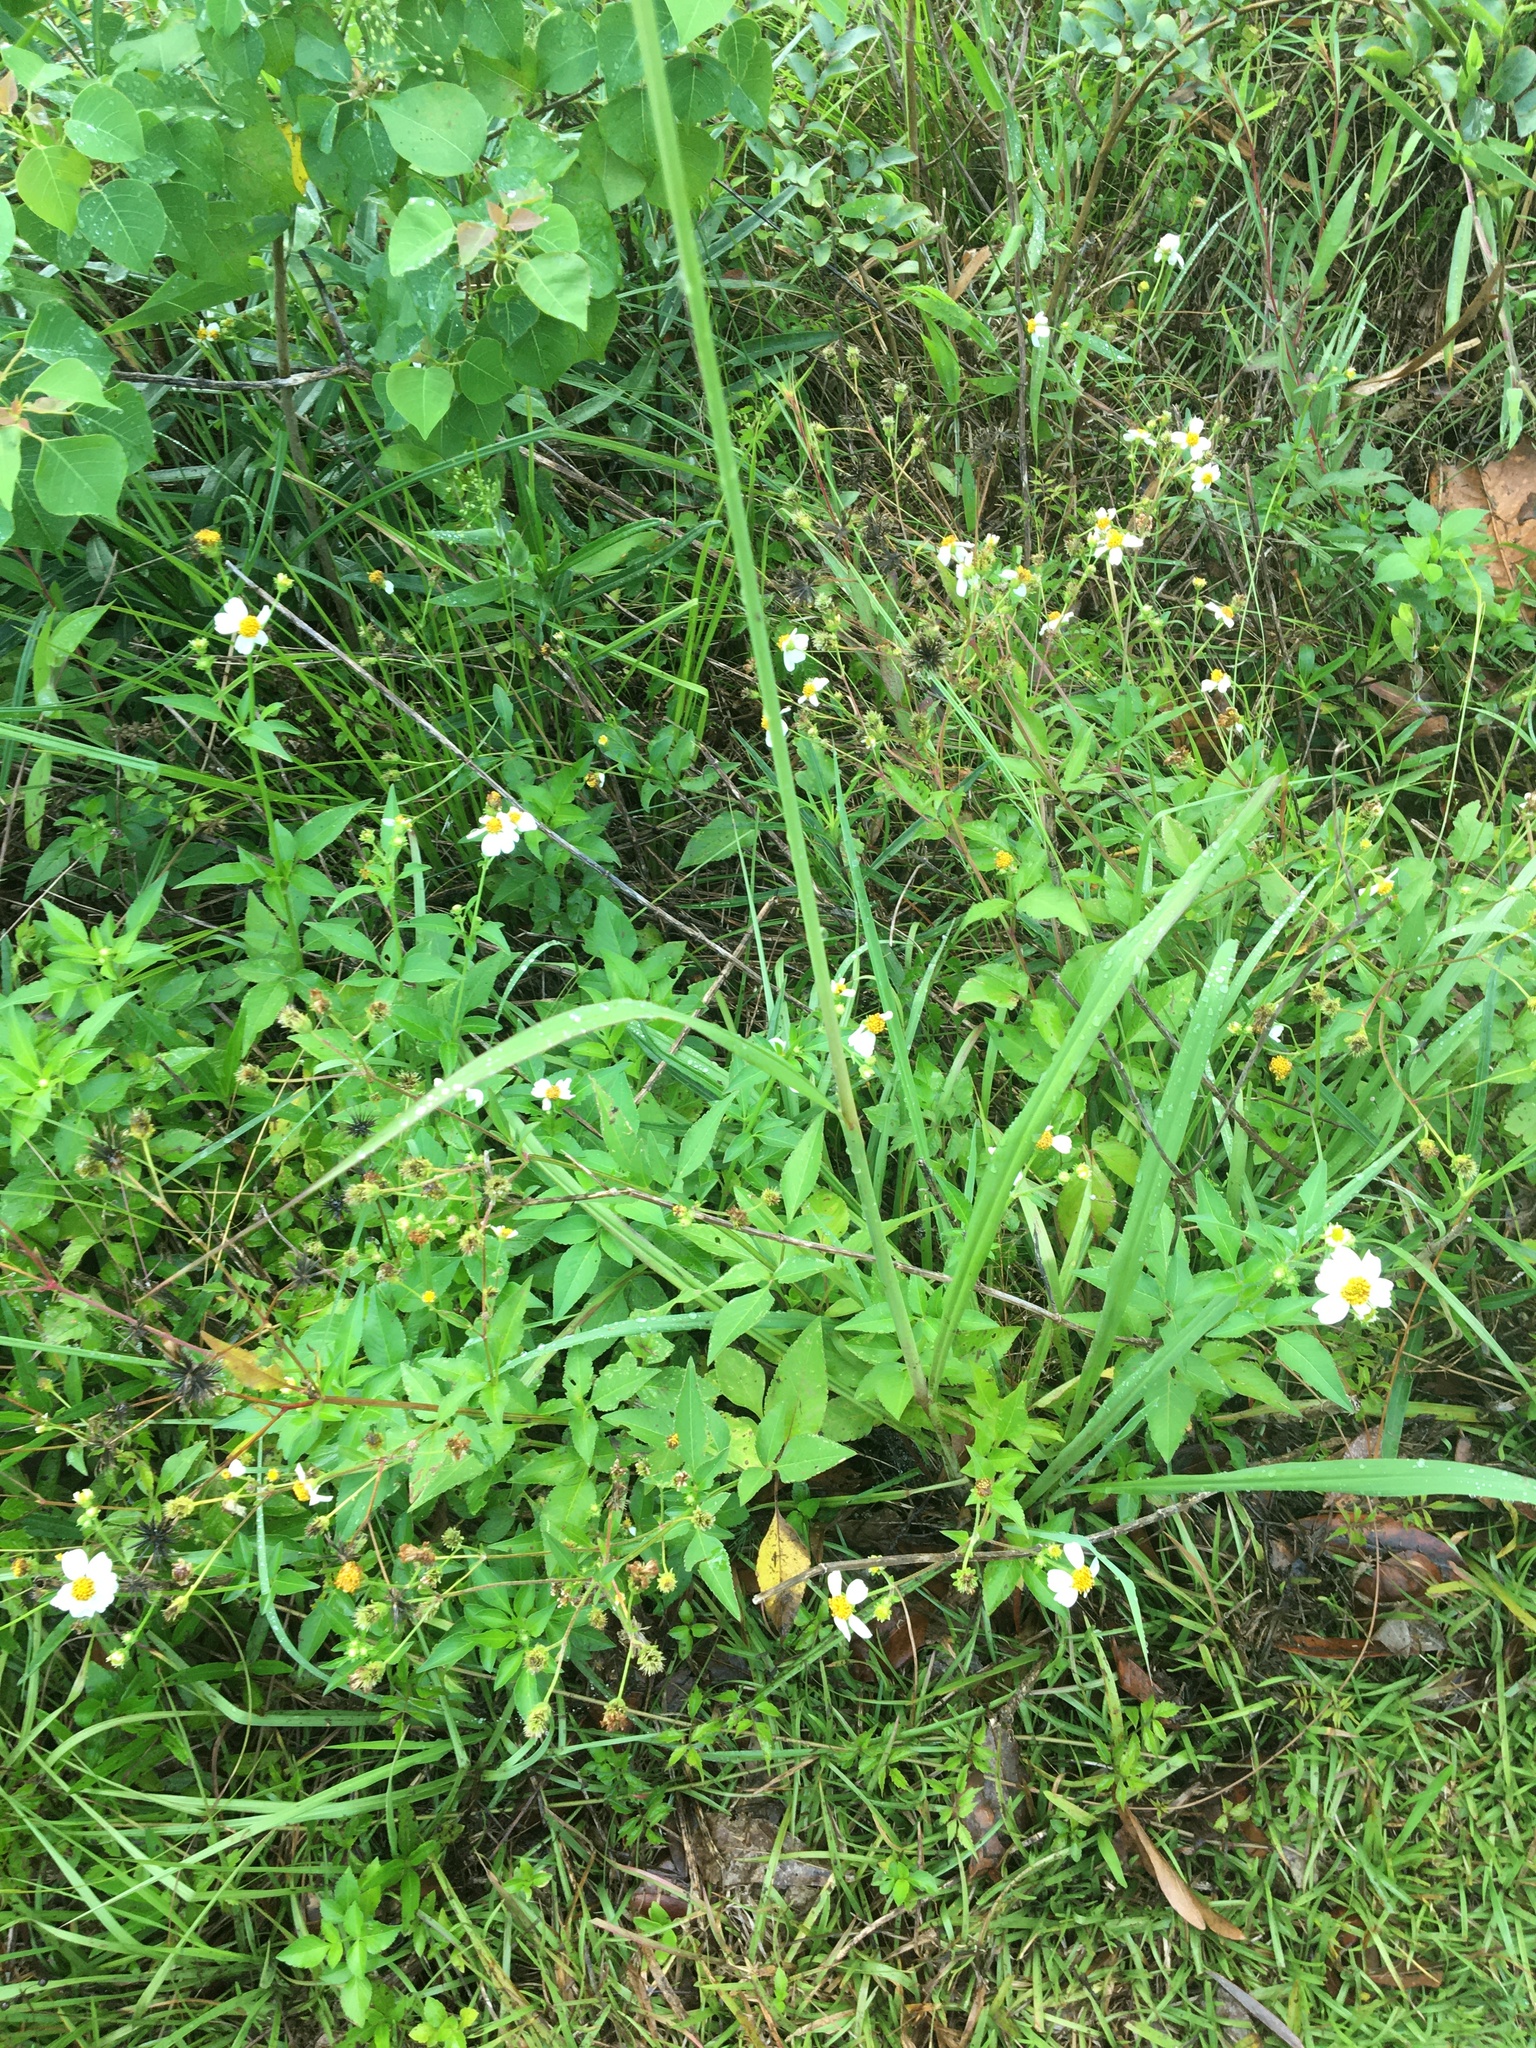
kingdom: Plantae
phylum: Tracheophyta
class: Liliopsida
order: Poales
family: Poaceae
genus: Paspalum
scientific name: Paspalum urvillei
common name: Vasey's grass
